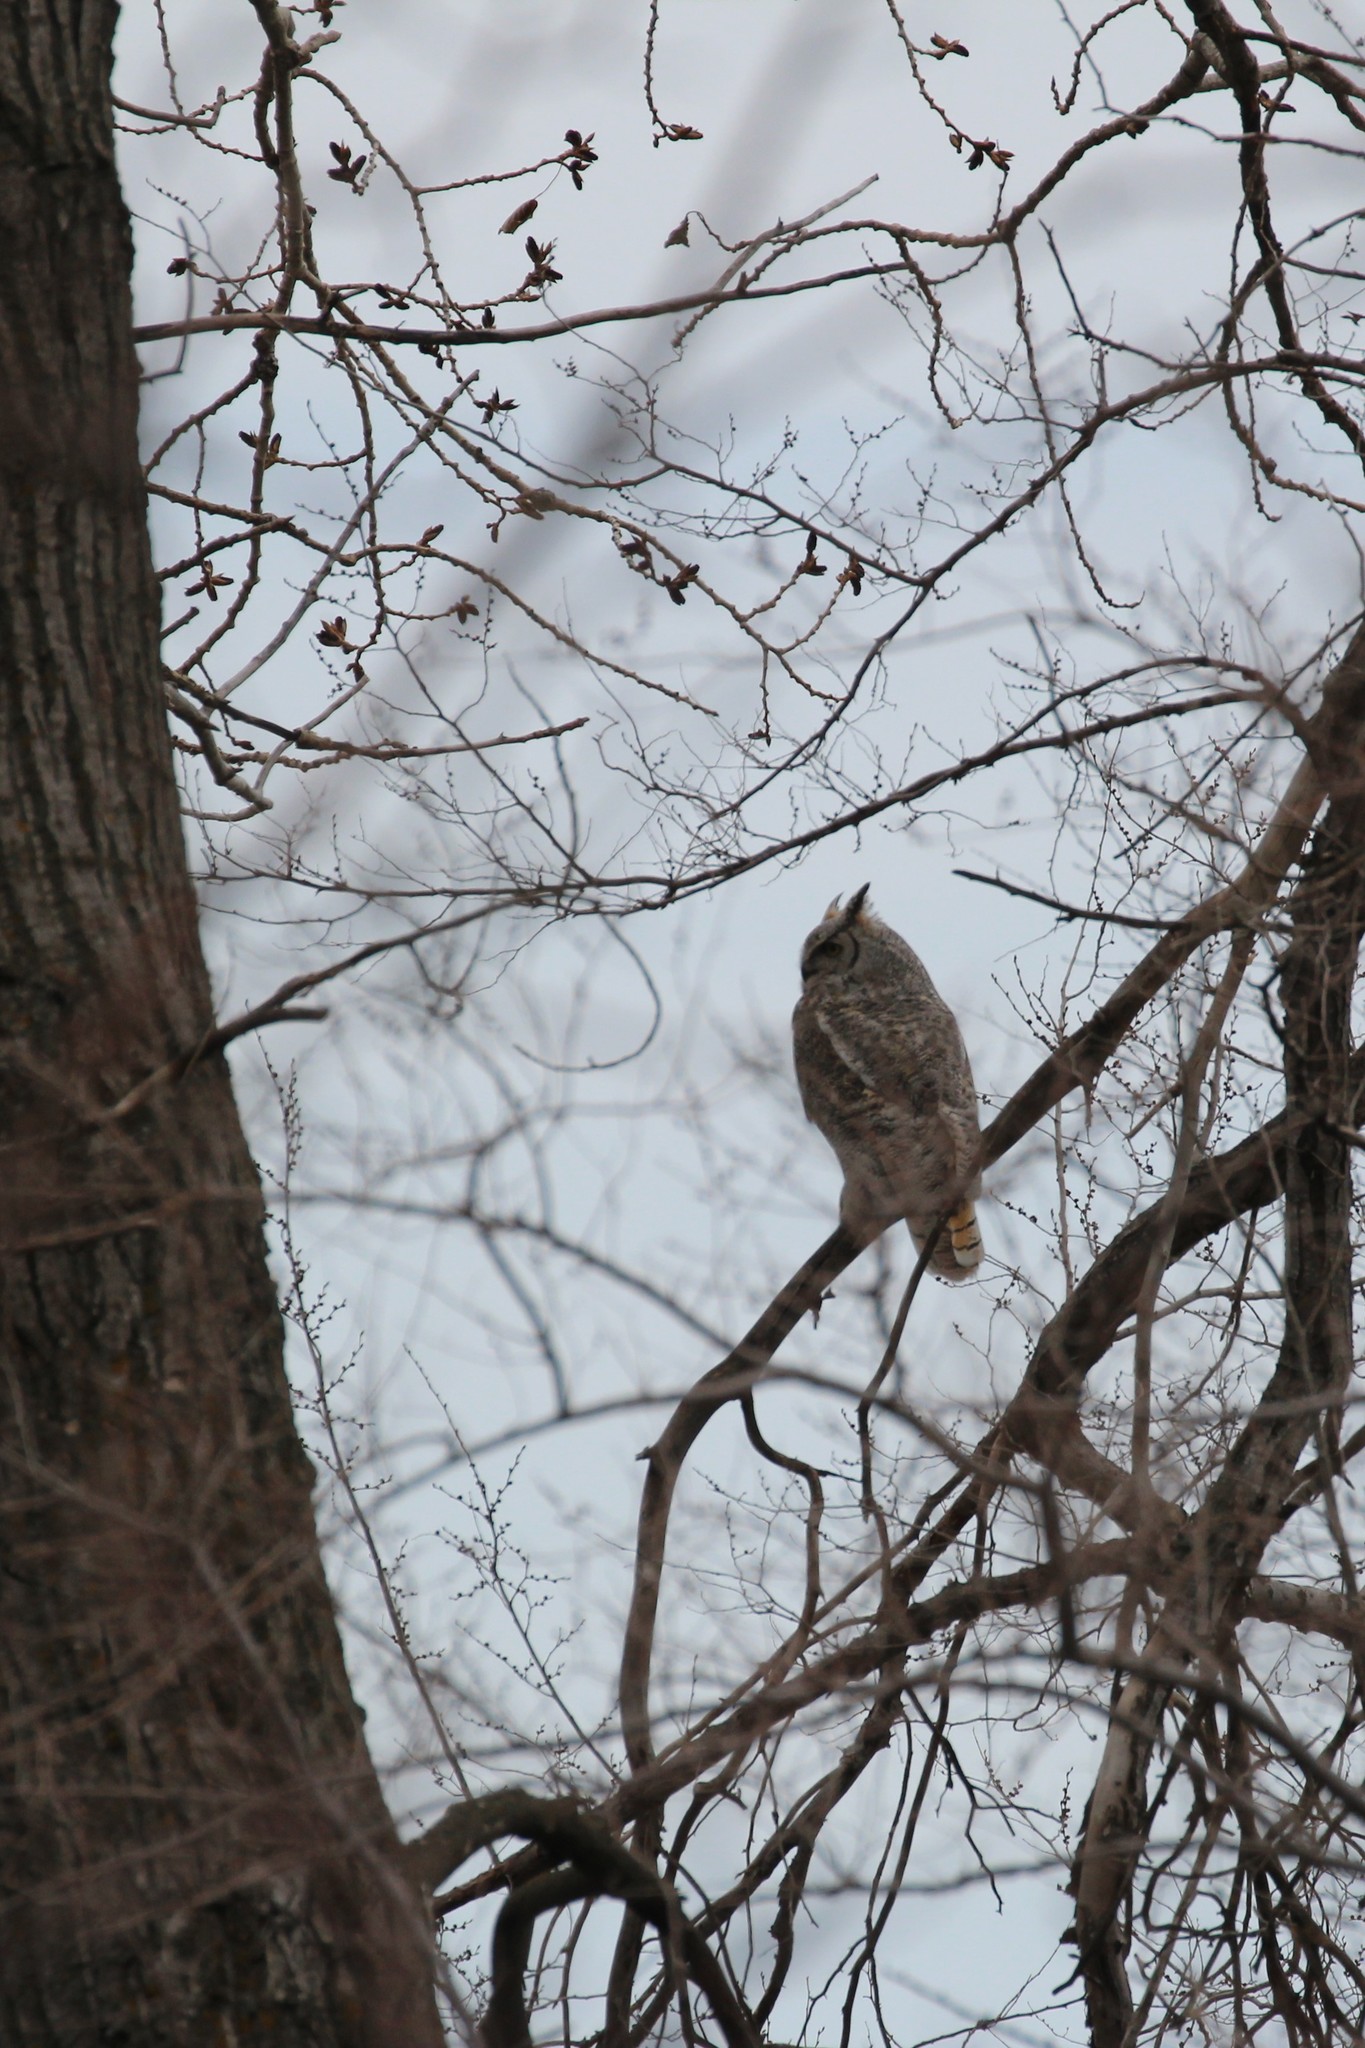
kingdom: Animalia
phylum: Chordata
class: Aves
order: Strigiformes
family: Strigidae
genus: Bubo
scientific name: Bubo virginianus
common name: Great horned owl
